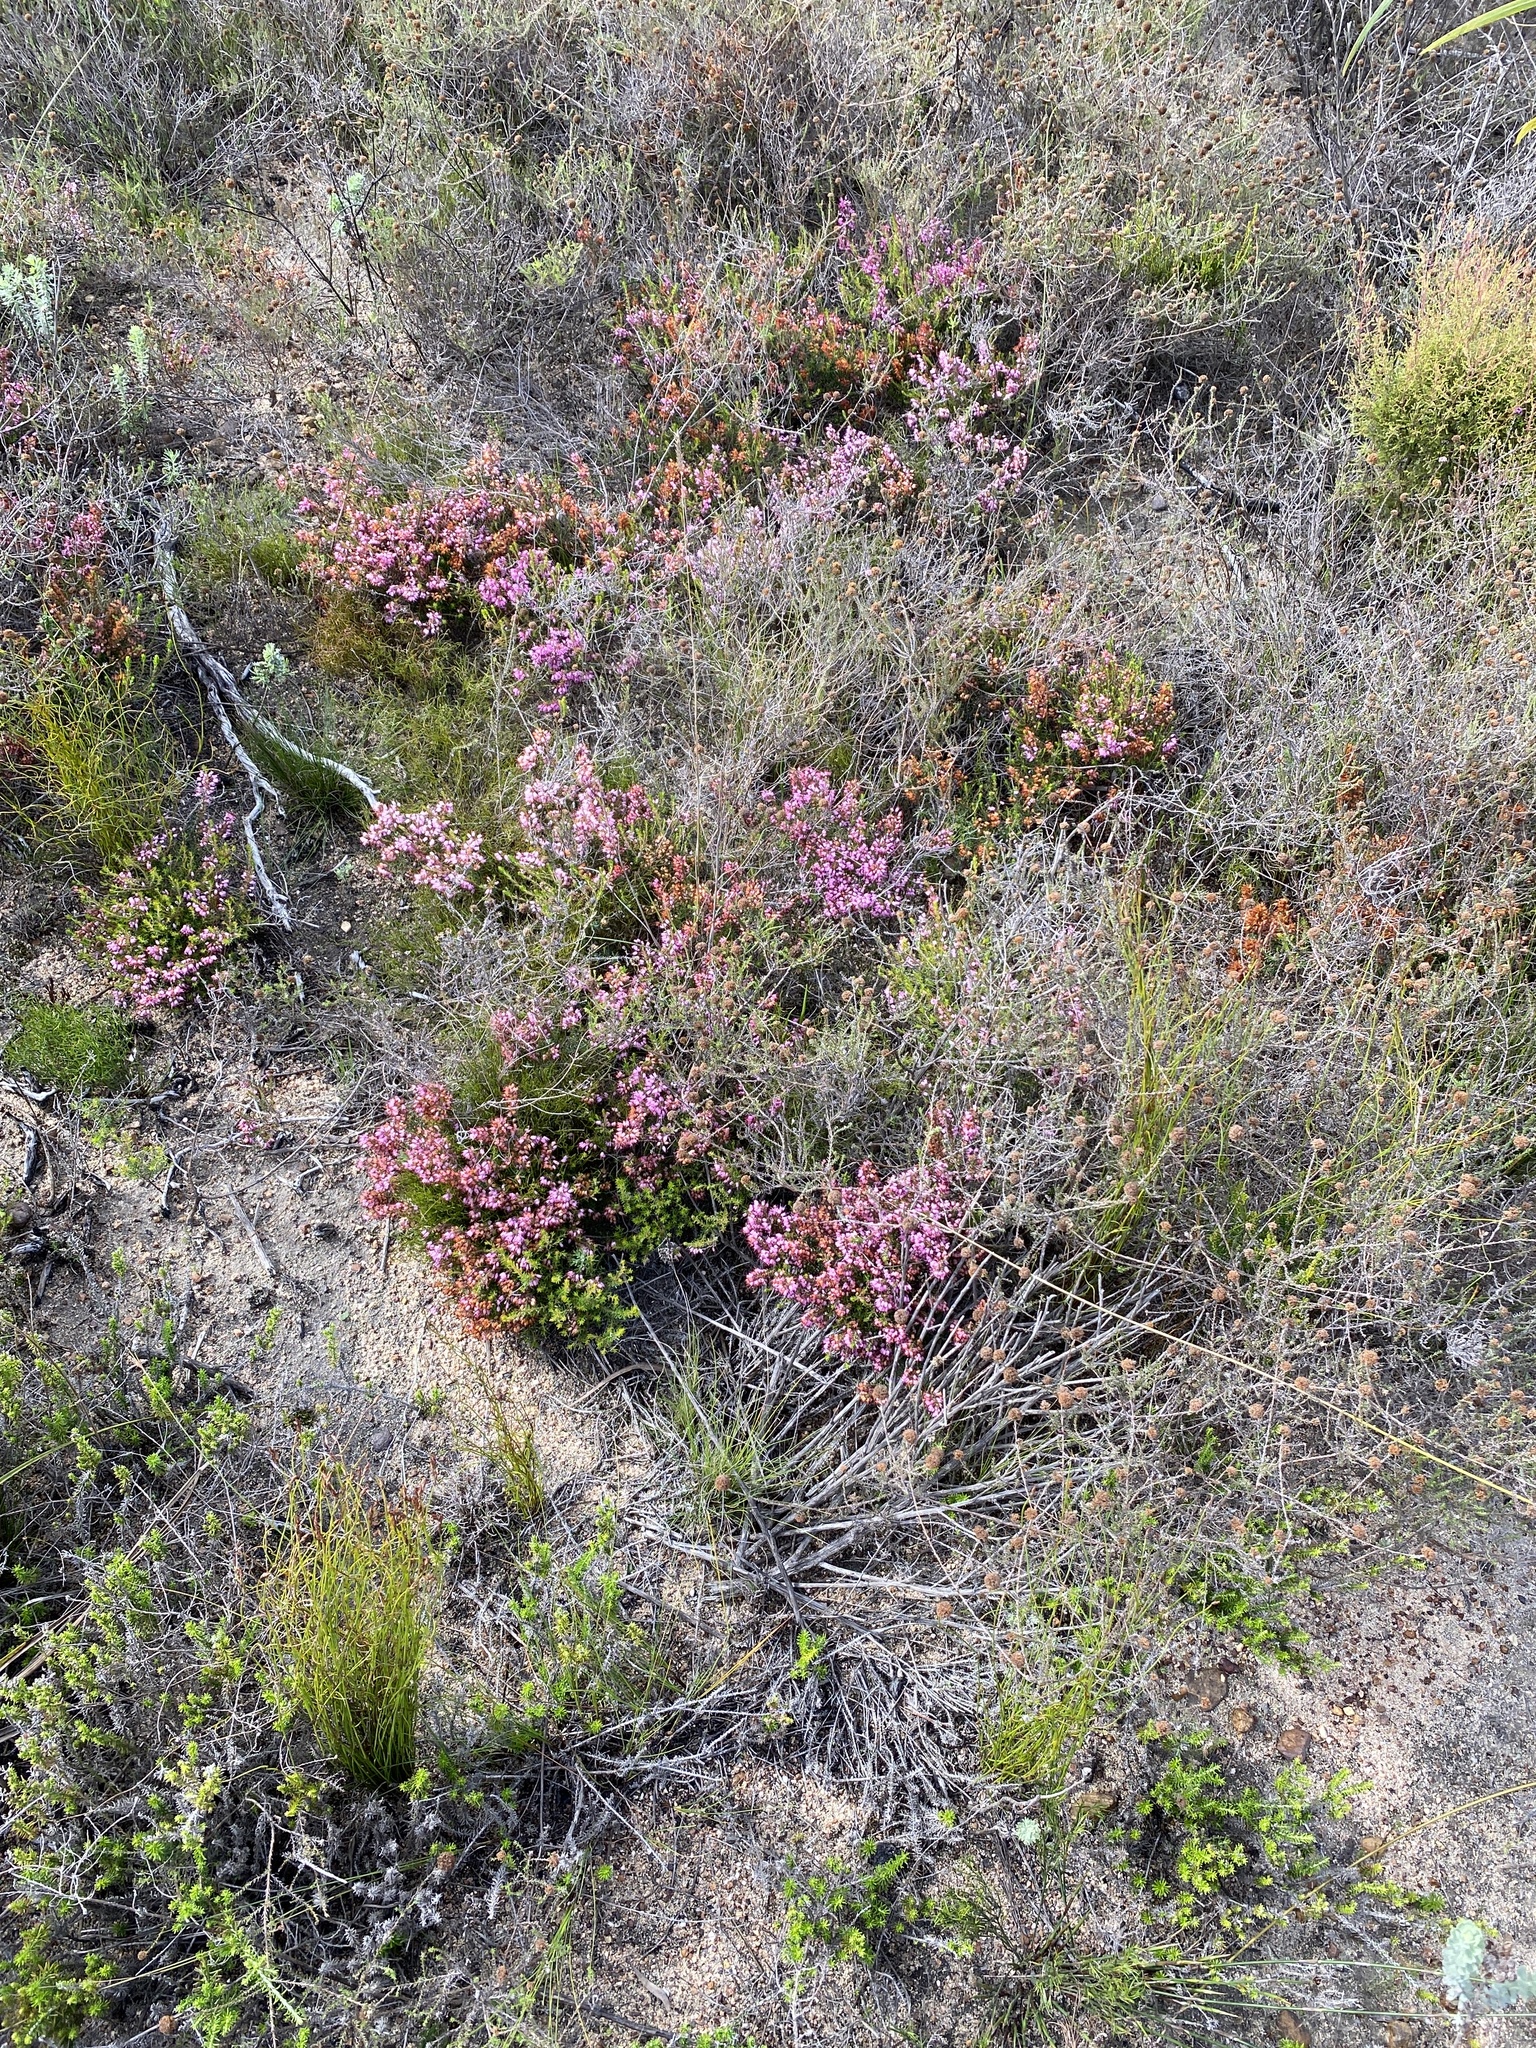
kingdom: Plantae
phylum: Tracheophyta
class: Magnoliopsida
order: Ericales
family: Ericaceae
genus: Erica
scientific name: Erica nudiflora
